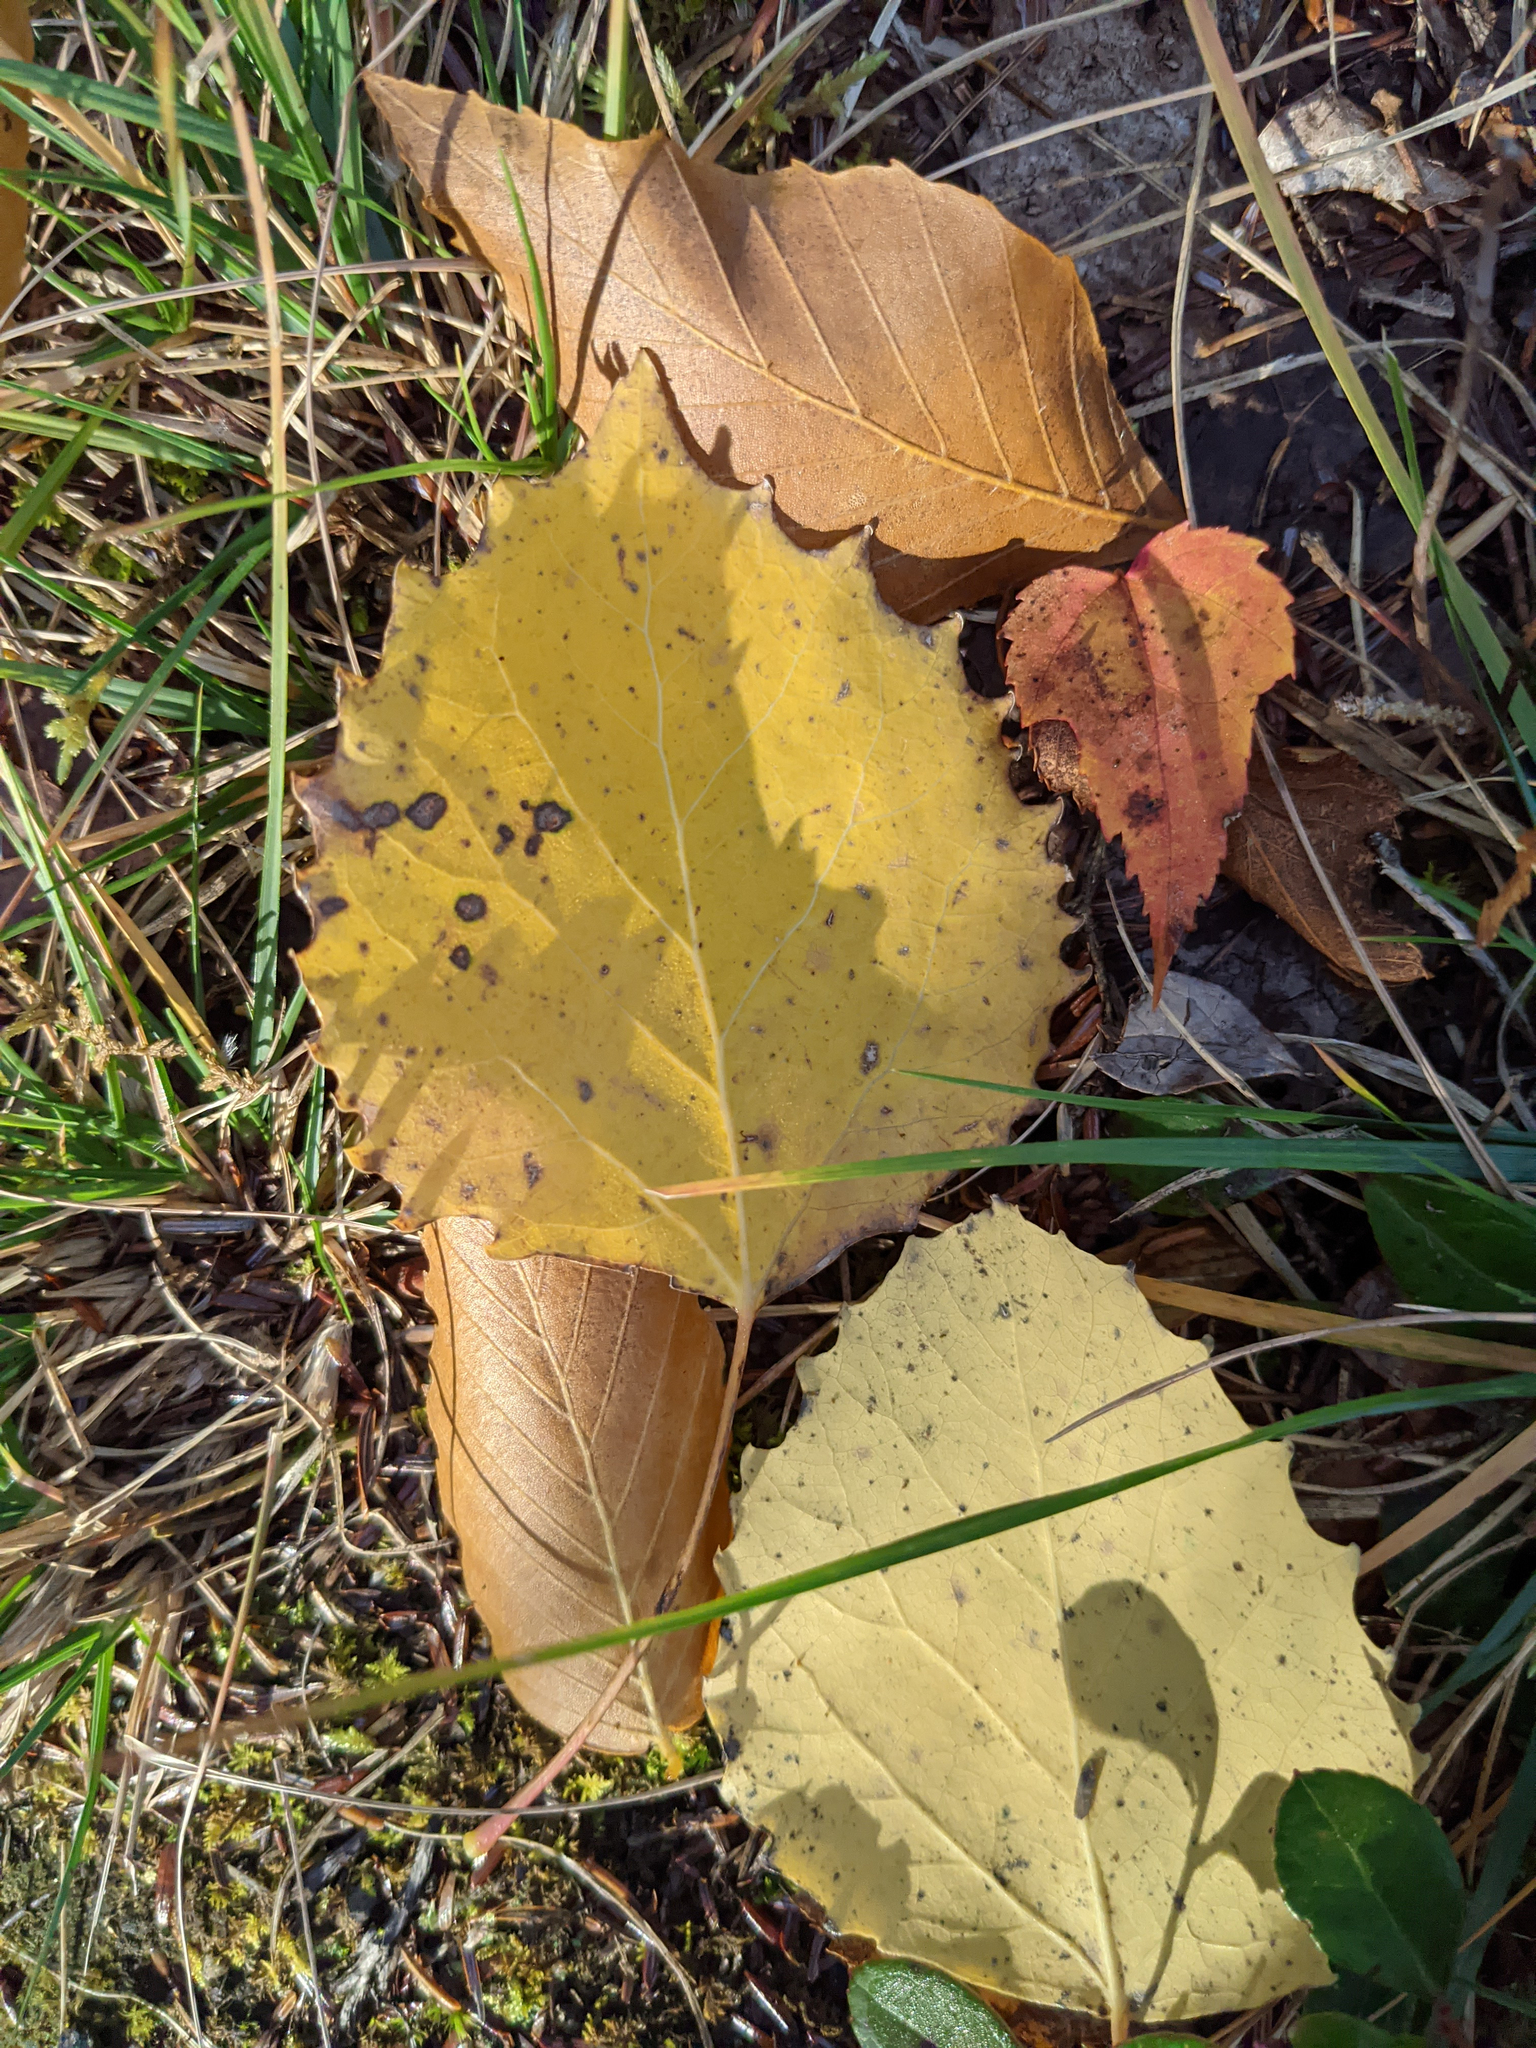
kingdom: Plantae
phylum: Tracheophyta
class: Magnoliopsida
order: Malpighiales
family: Salicaceae
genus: Populus
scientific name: Populus grandidentata
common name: Bigtooth aspen
